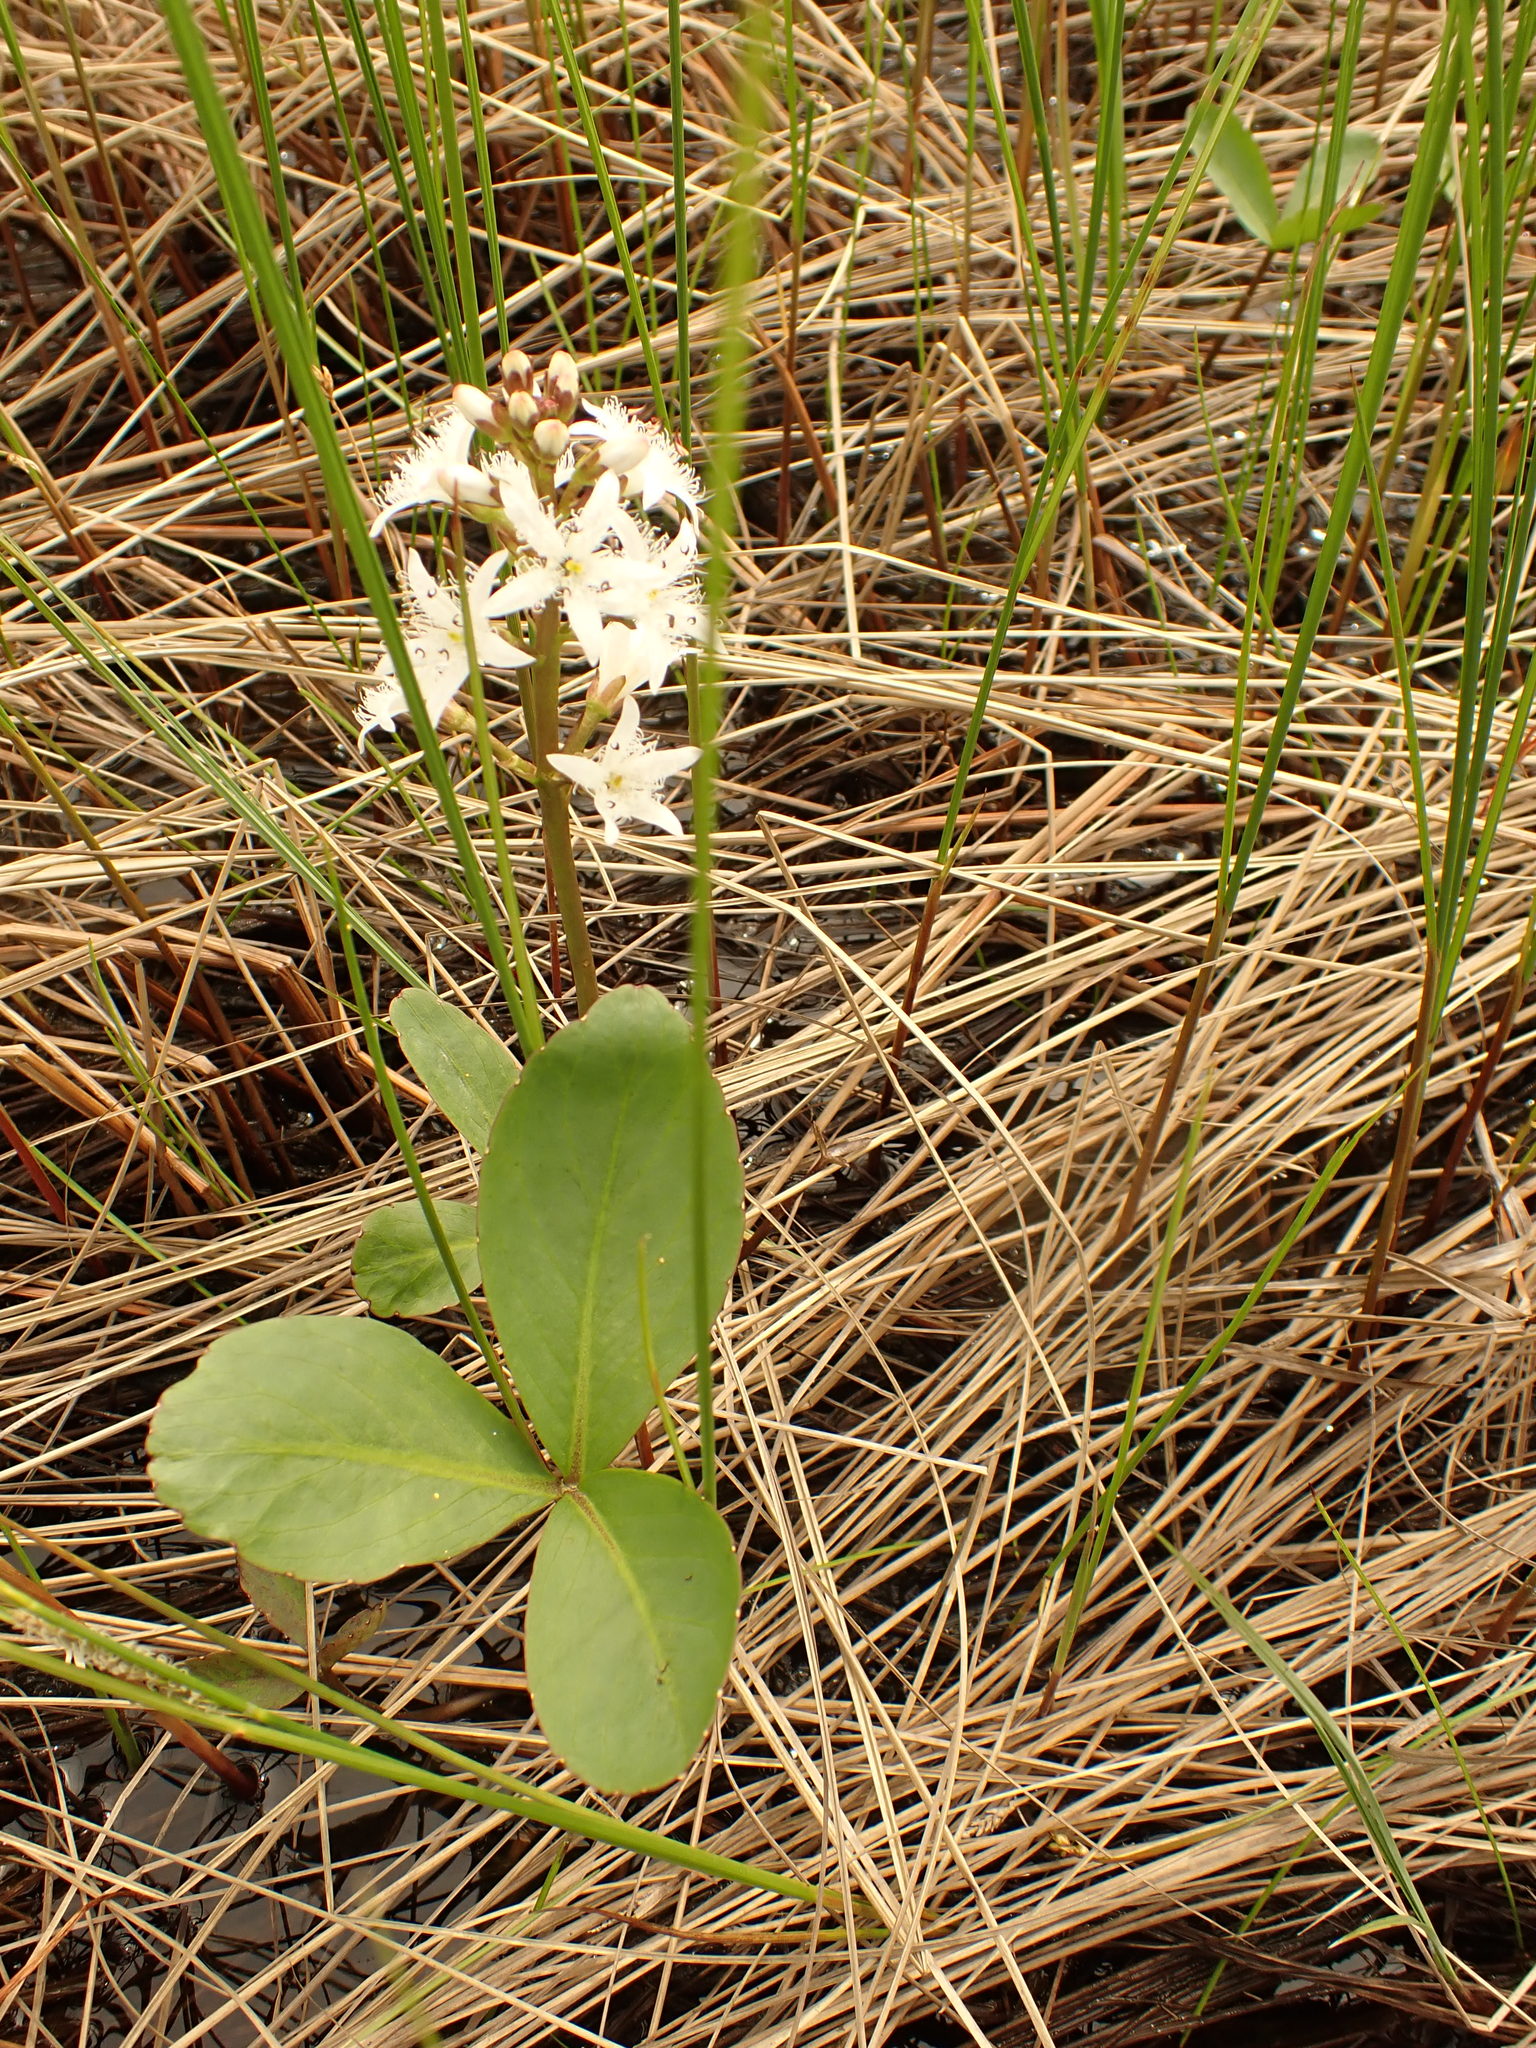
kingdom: Plantae
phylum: Tracheophyta
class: Magnoliopsida
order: Asterales
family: Menyanthaceae
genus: Menyanthes
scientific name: Menyanthes trifoliata
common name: Bogbean
